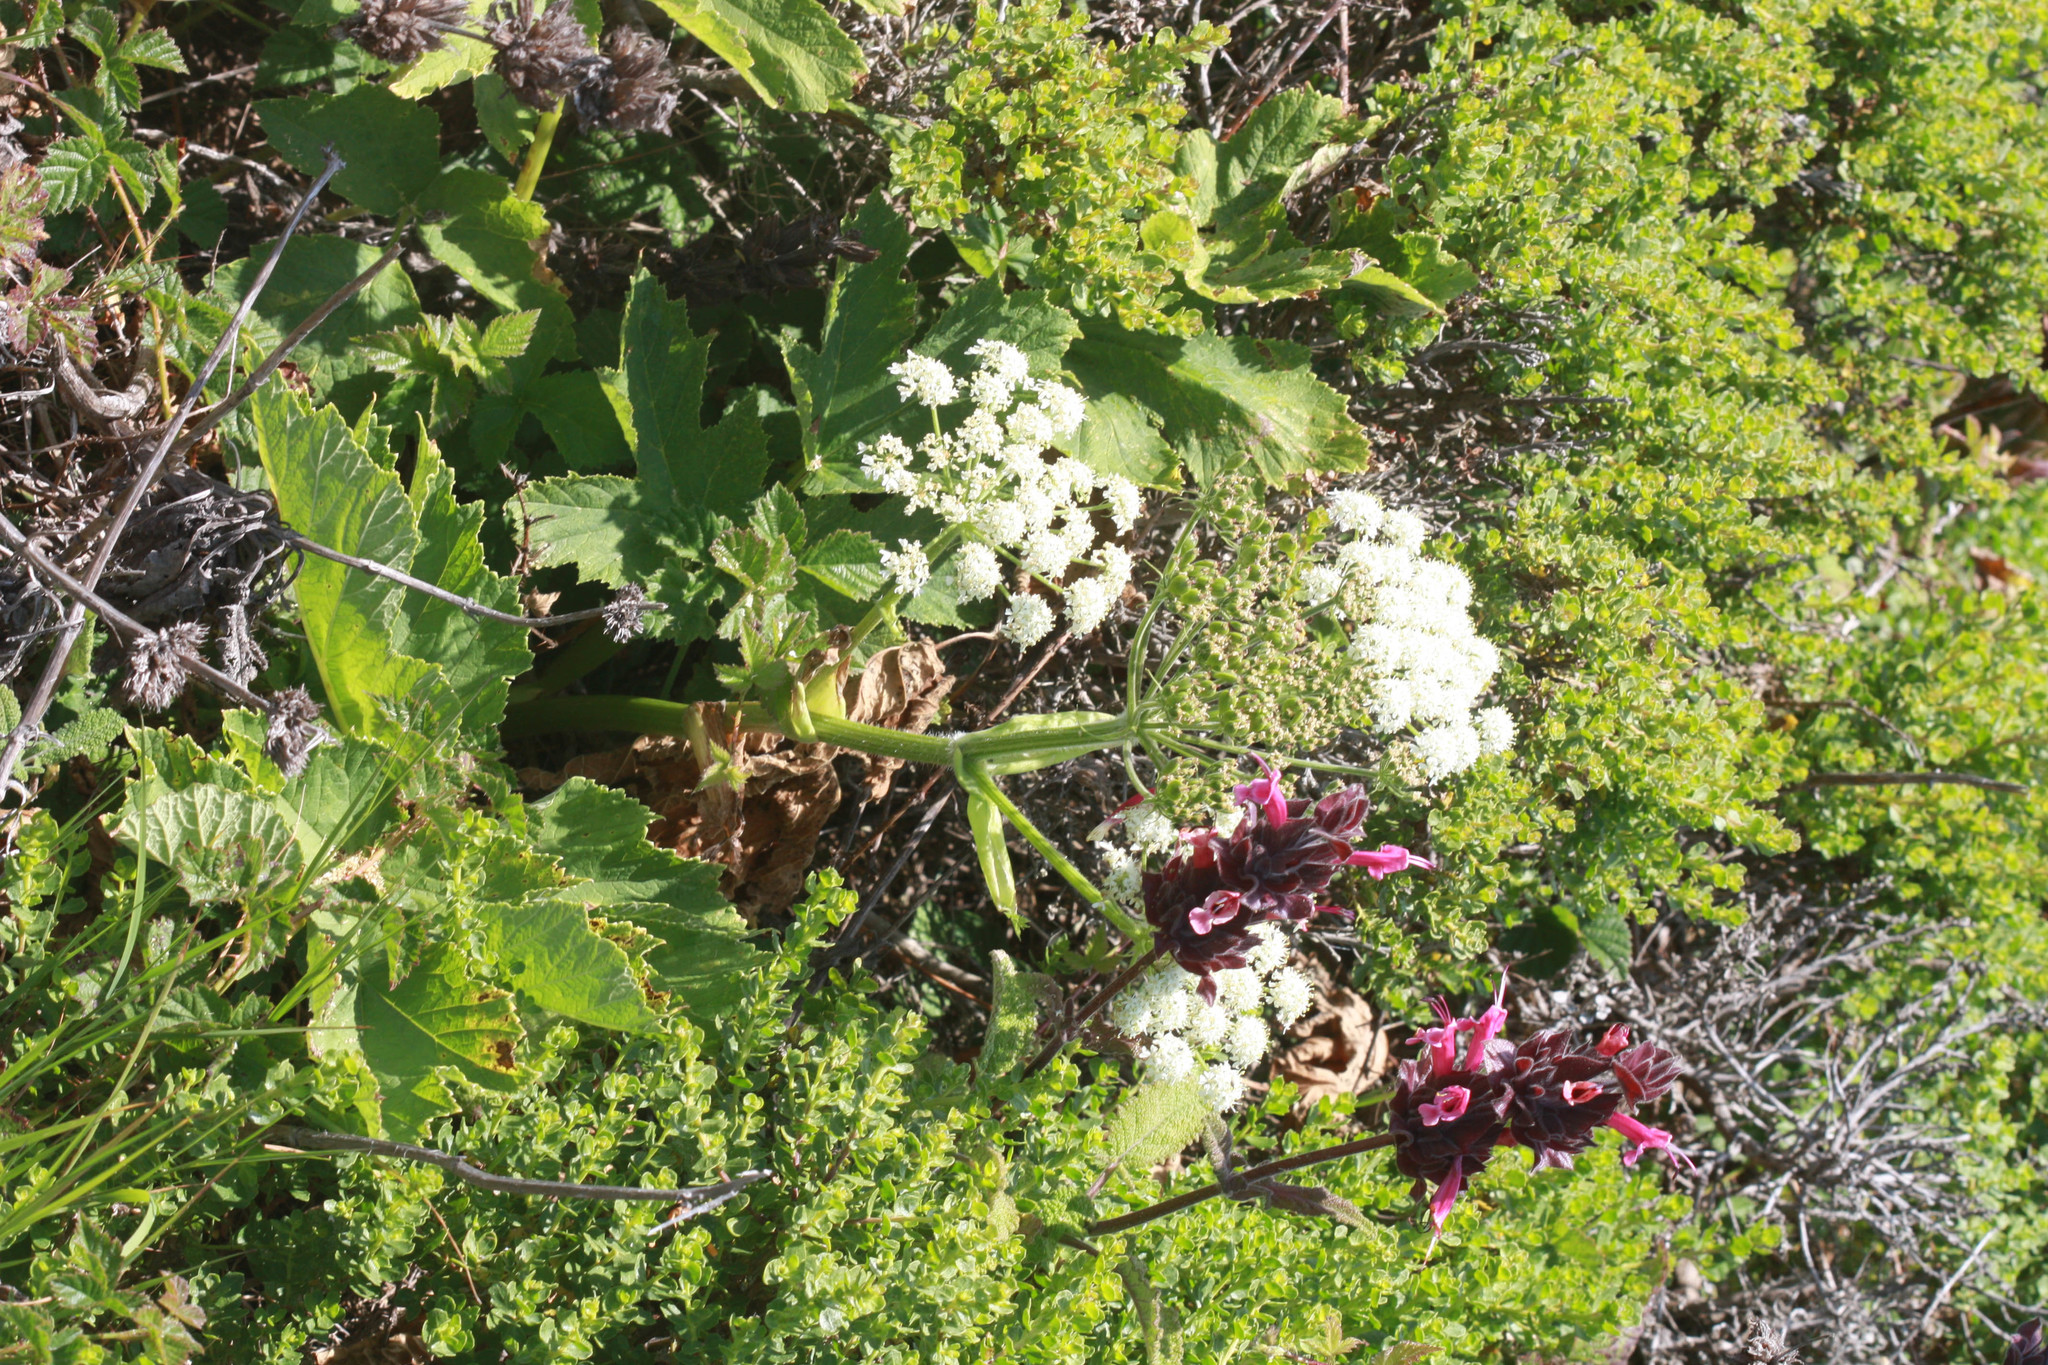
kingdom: Plantae
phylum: Tracheophyta
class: Magnoliopsida
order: Apiales
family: Apiaceae
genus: Heracleum
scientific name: Heracleum maximum
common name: American cow parsnip
